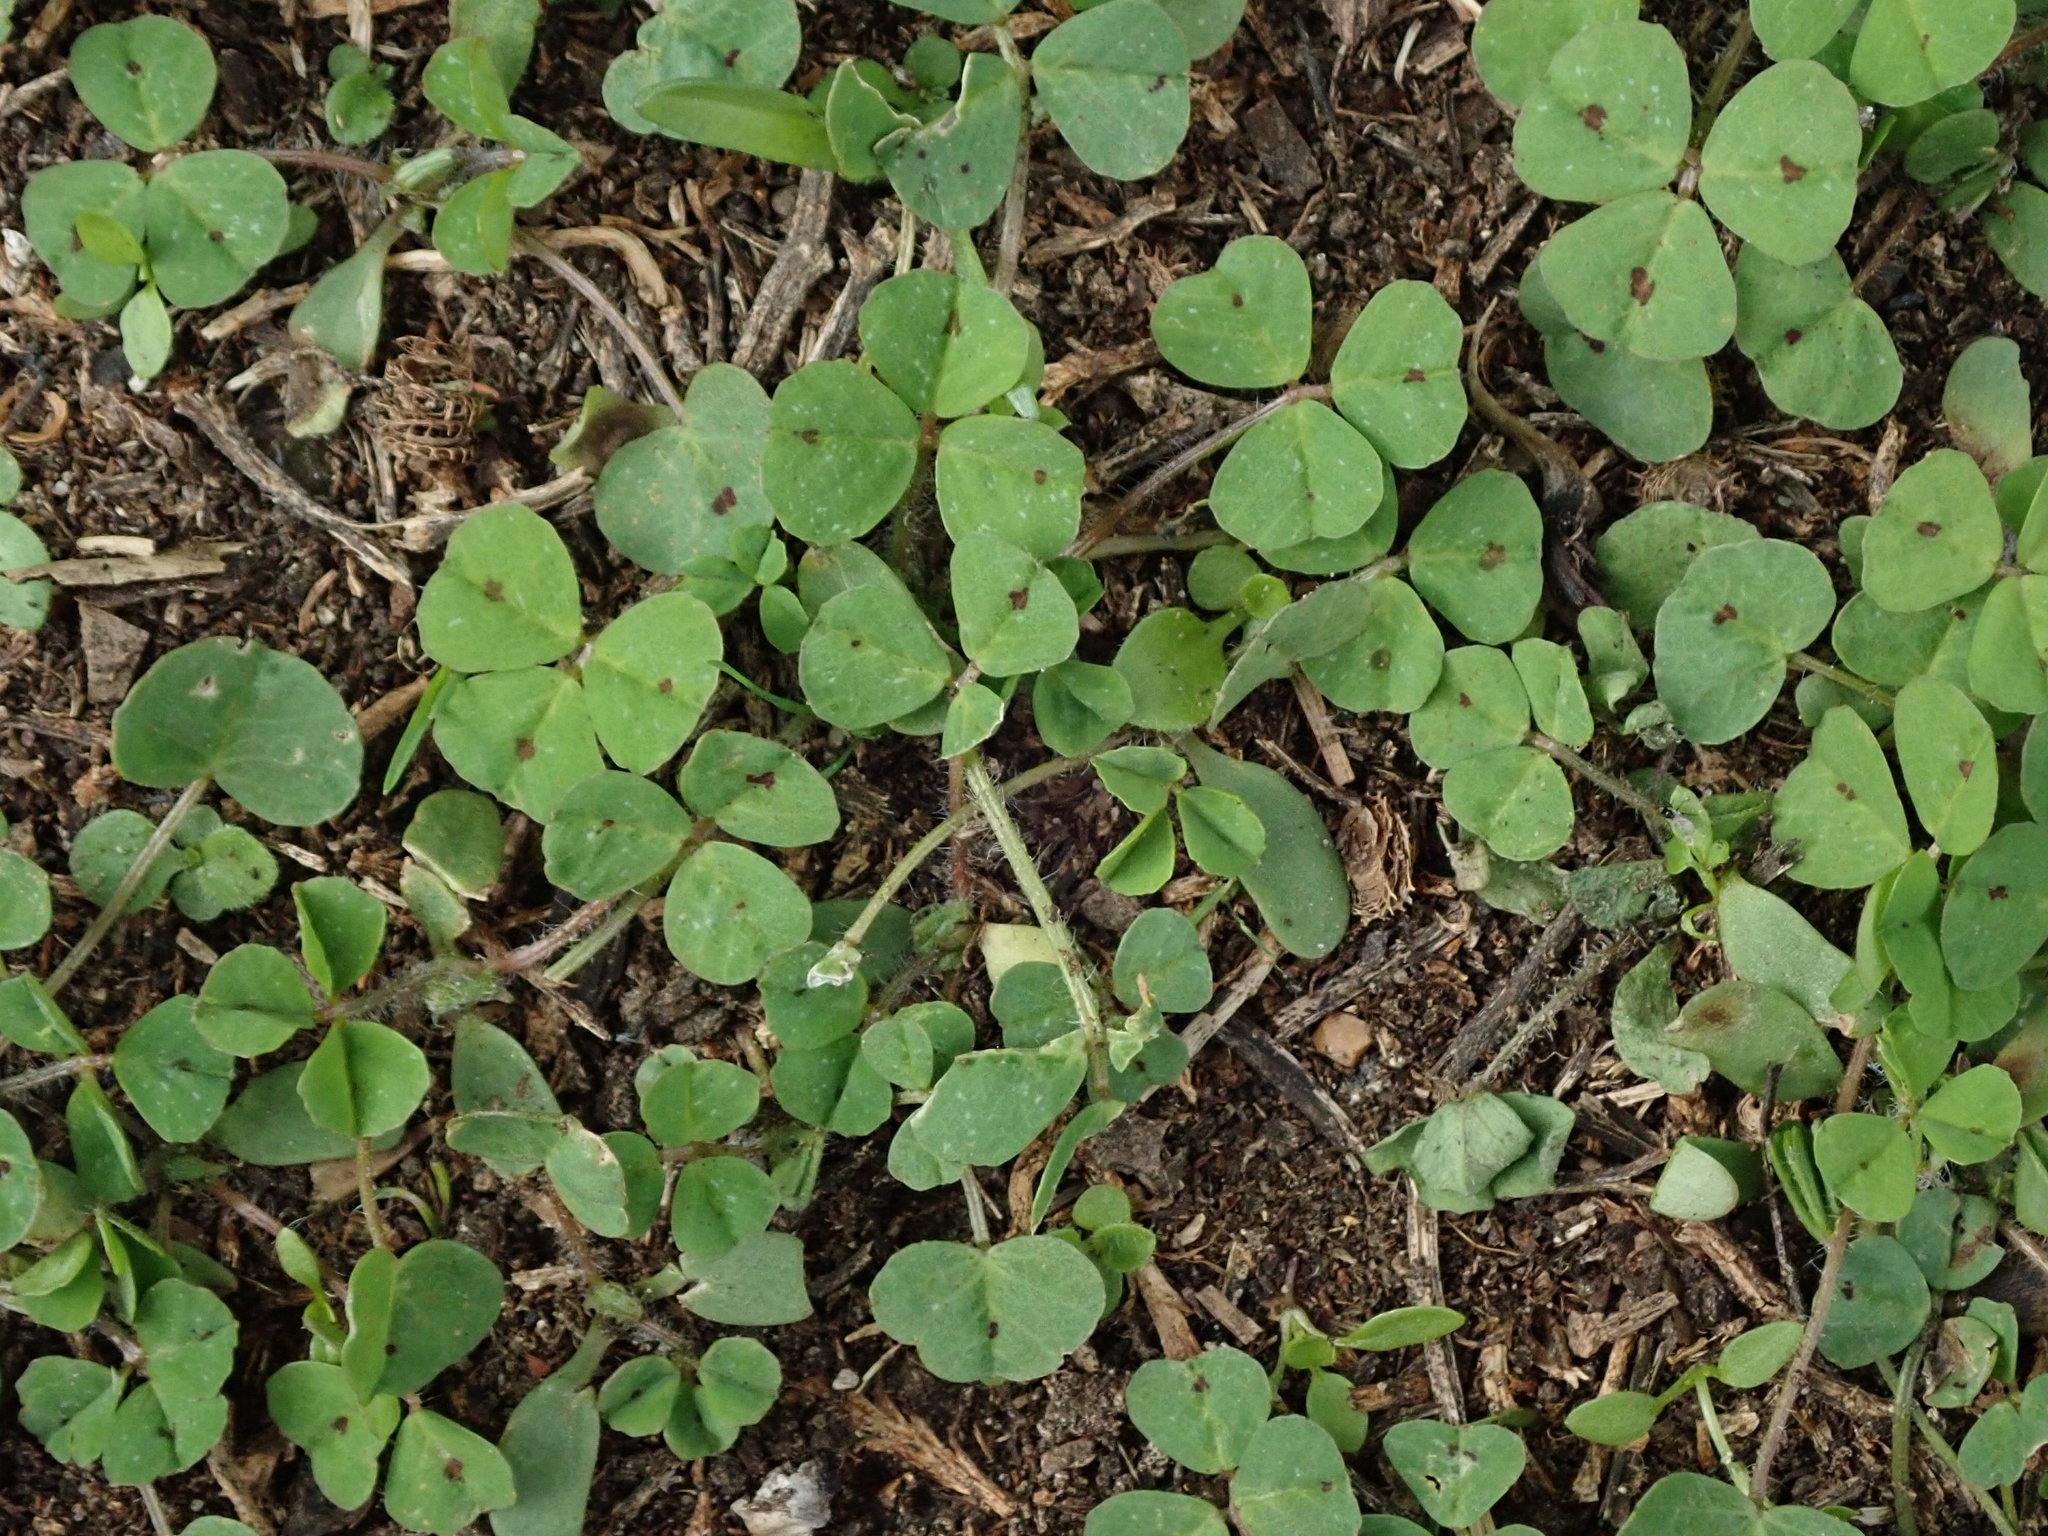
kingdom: Plantae
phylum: Tracheophyta
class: Magnoliopsida
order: Fabales
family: Fabaceae
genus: Medicago
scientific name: Medicago arabica
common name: Spotted medick
